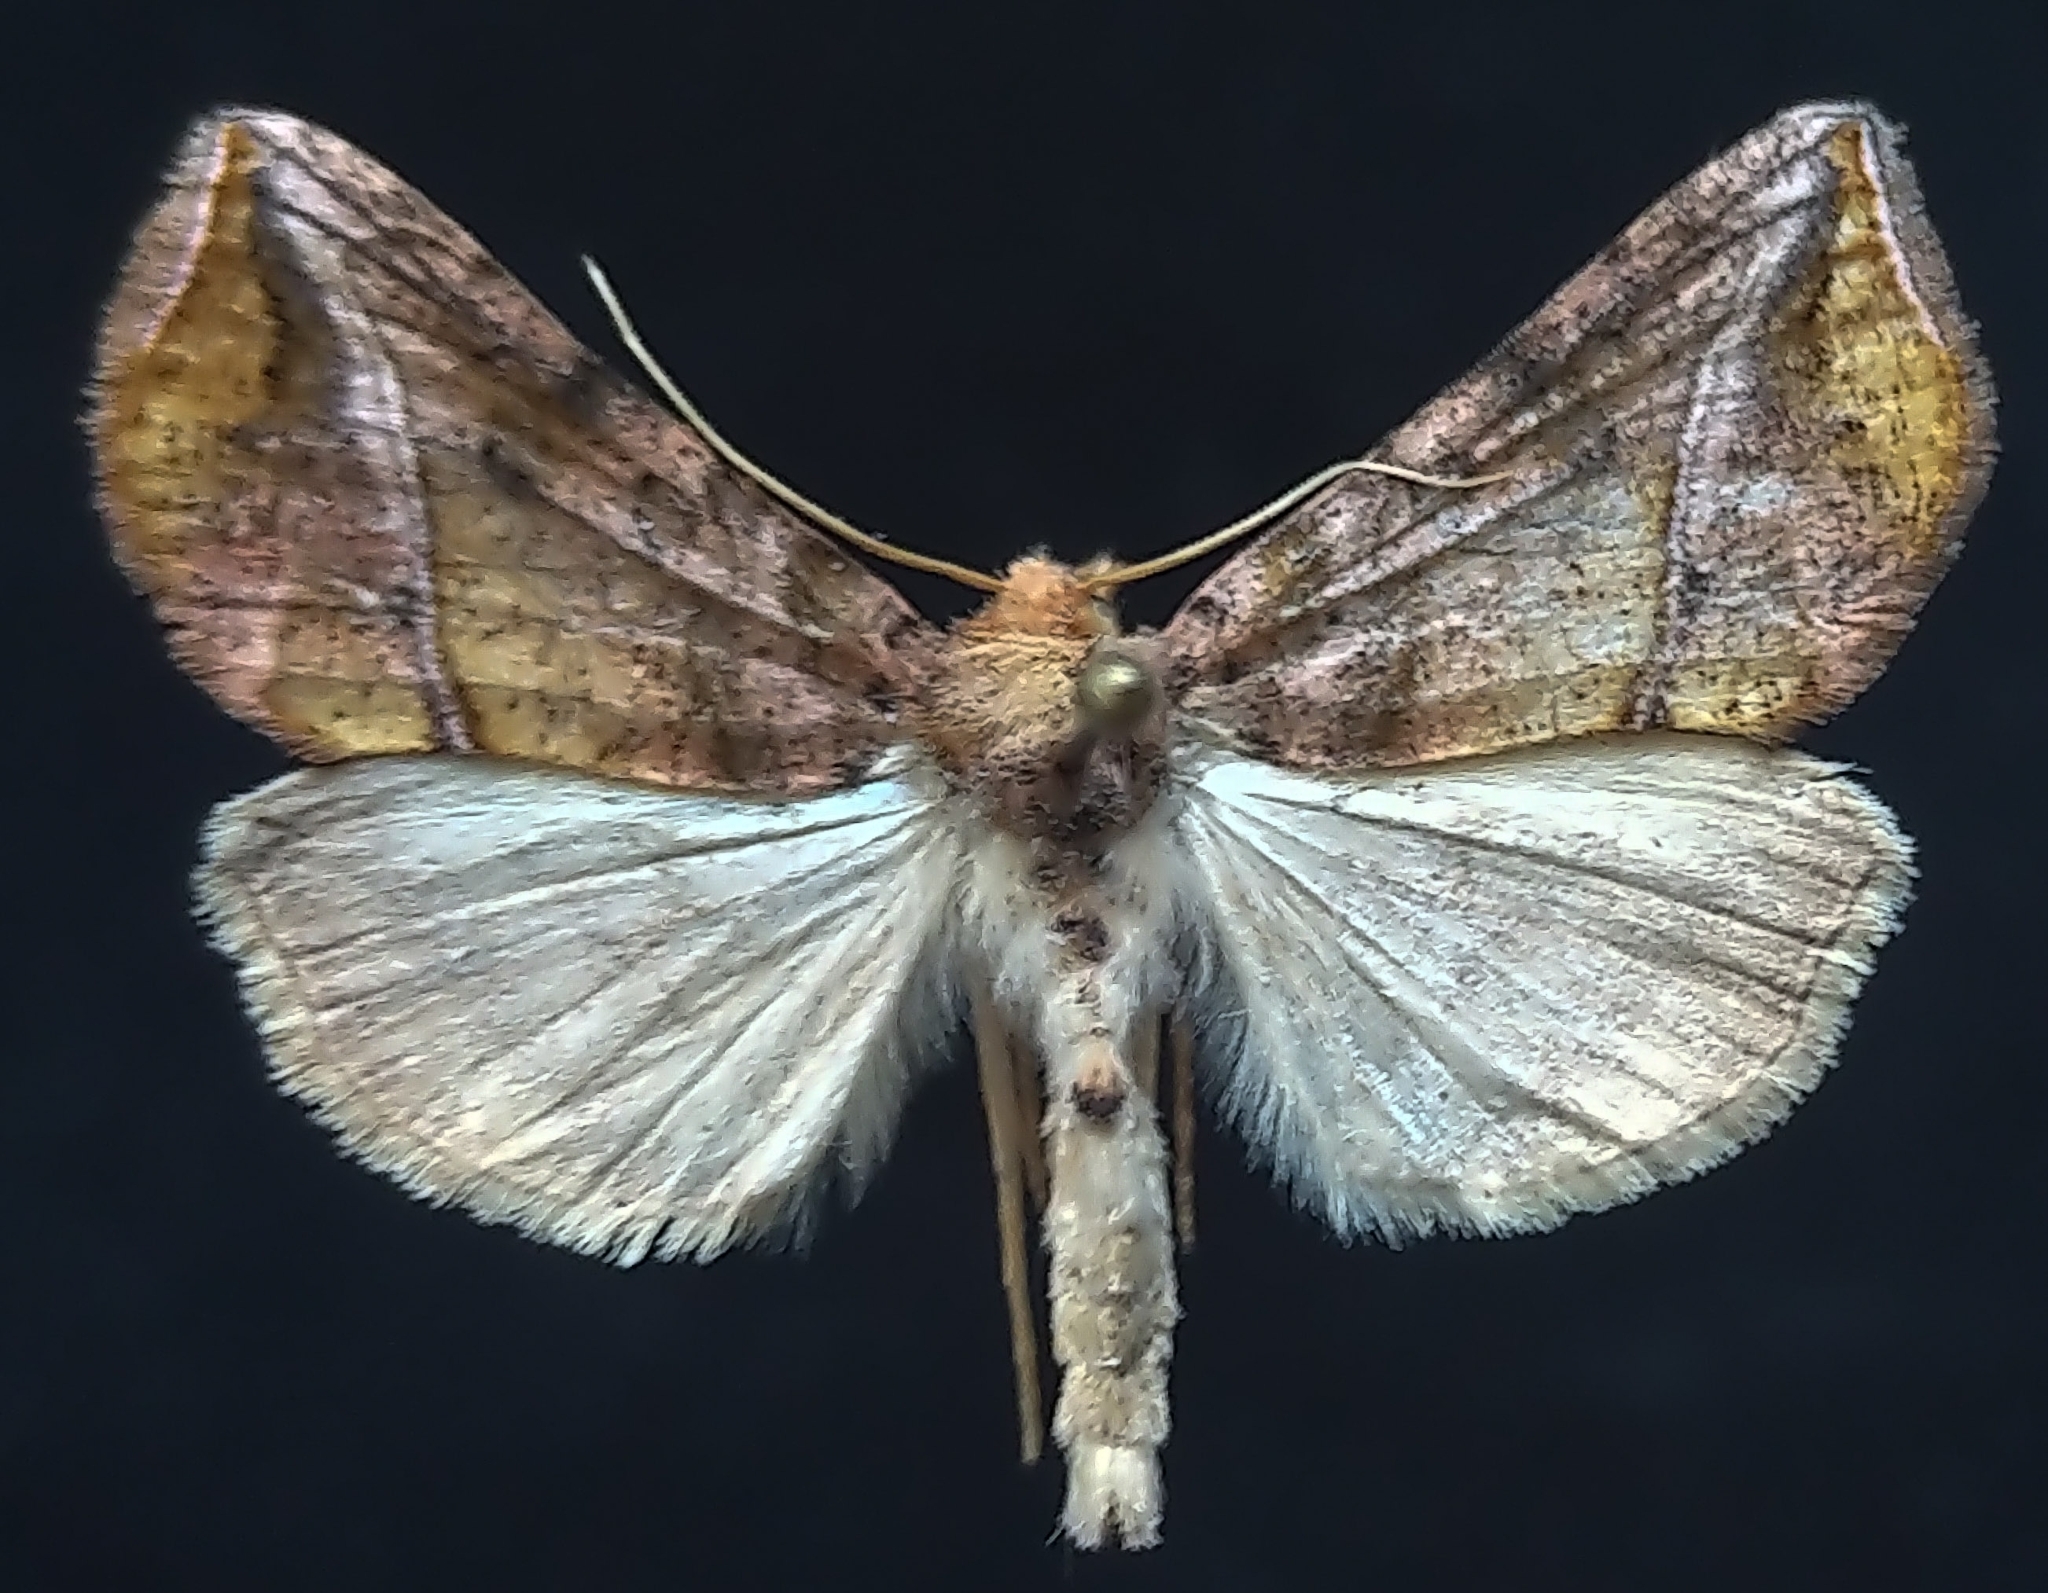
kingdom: Animalia
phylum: Arthropoda
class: Insecta
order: Lepidoptera
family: Noctuidae
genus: Pseudeva
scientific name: Pseudeva purpurigera
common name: Straight-lined looper moth
